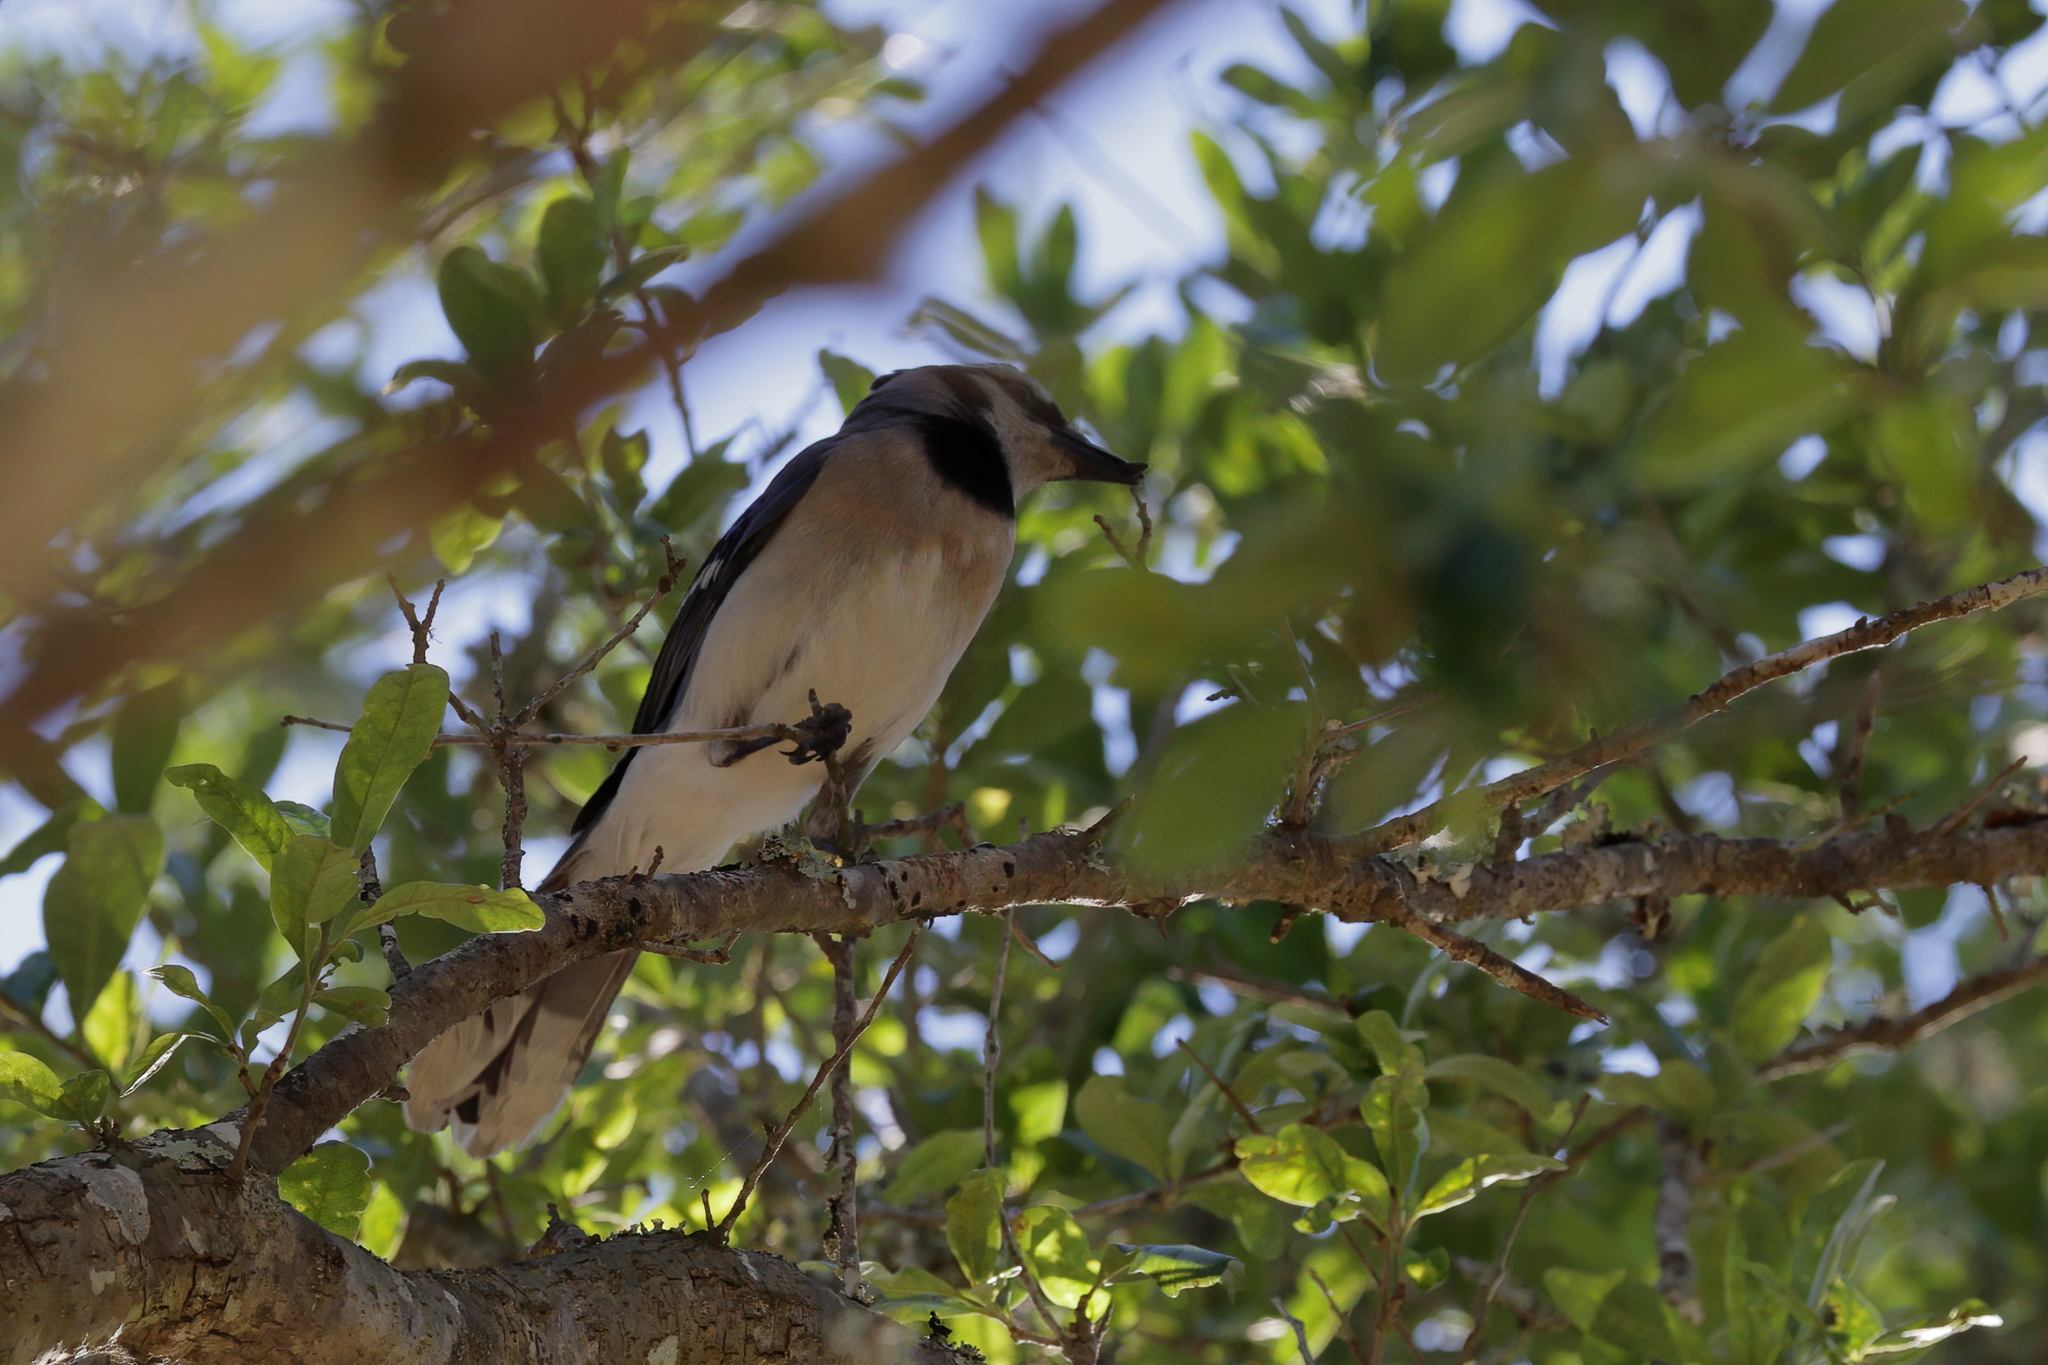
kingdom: Animalia
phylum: Chordata
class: Aves
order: Passeriformes
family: Corvidae
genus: Cyanocitta
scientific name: Cyanocitta cristata
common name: Blue jay
